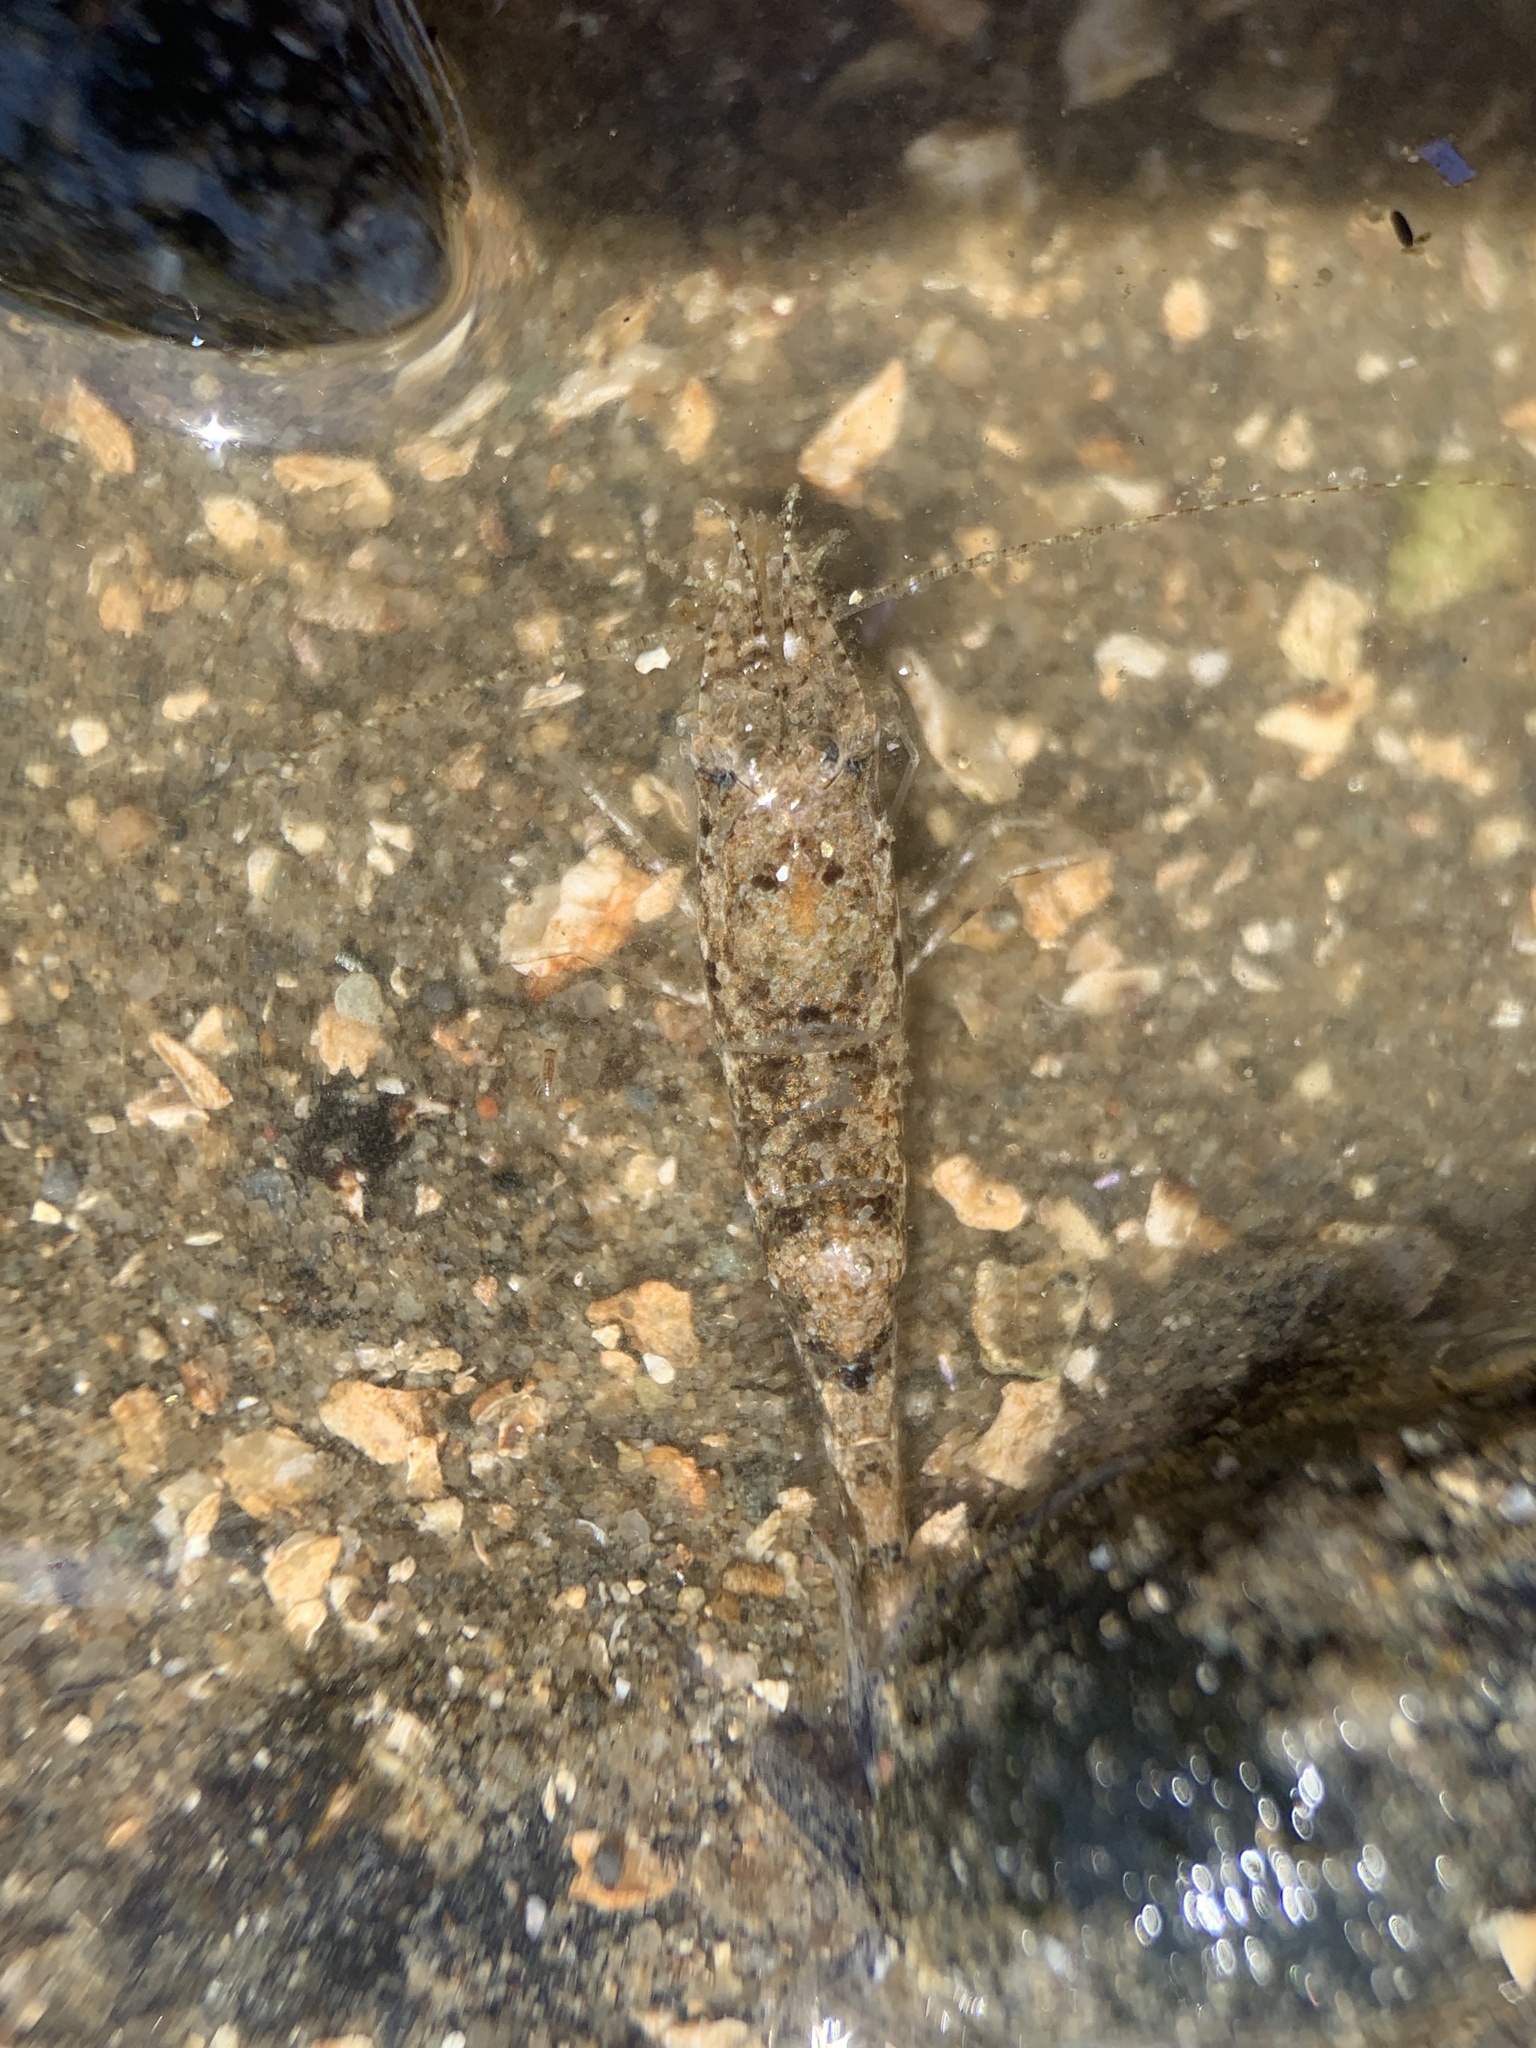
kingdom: Animalia
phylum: Arthropoda
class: Malacostraca
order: Decapoda
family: Crangonidae
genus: Crangon
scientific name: Crangon septemspinosa
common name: Bail shrimp
